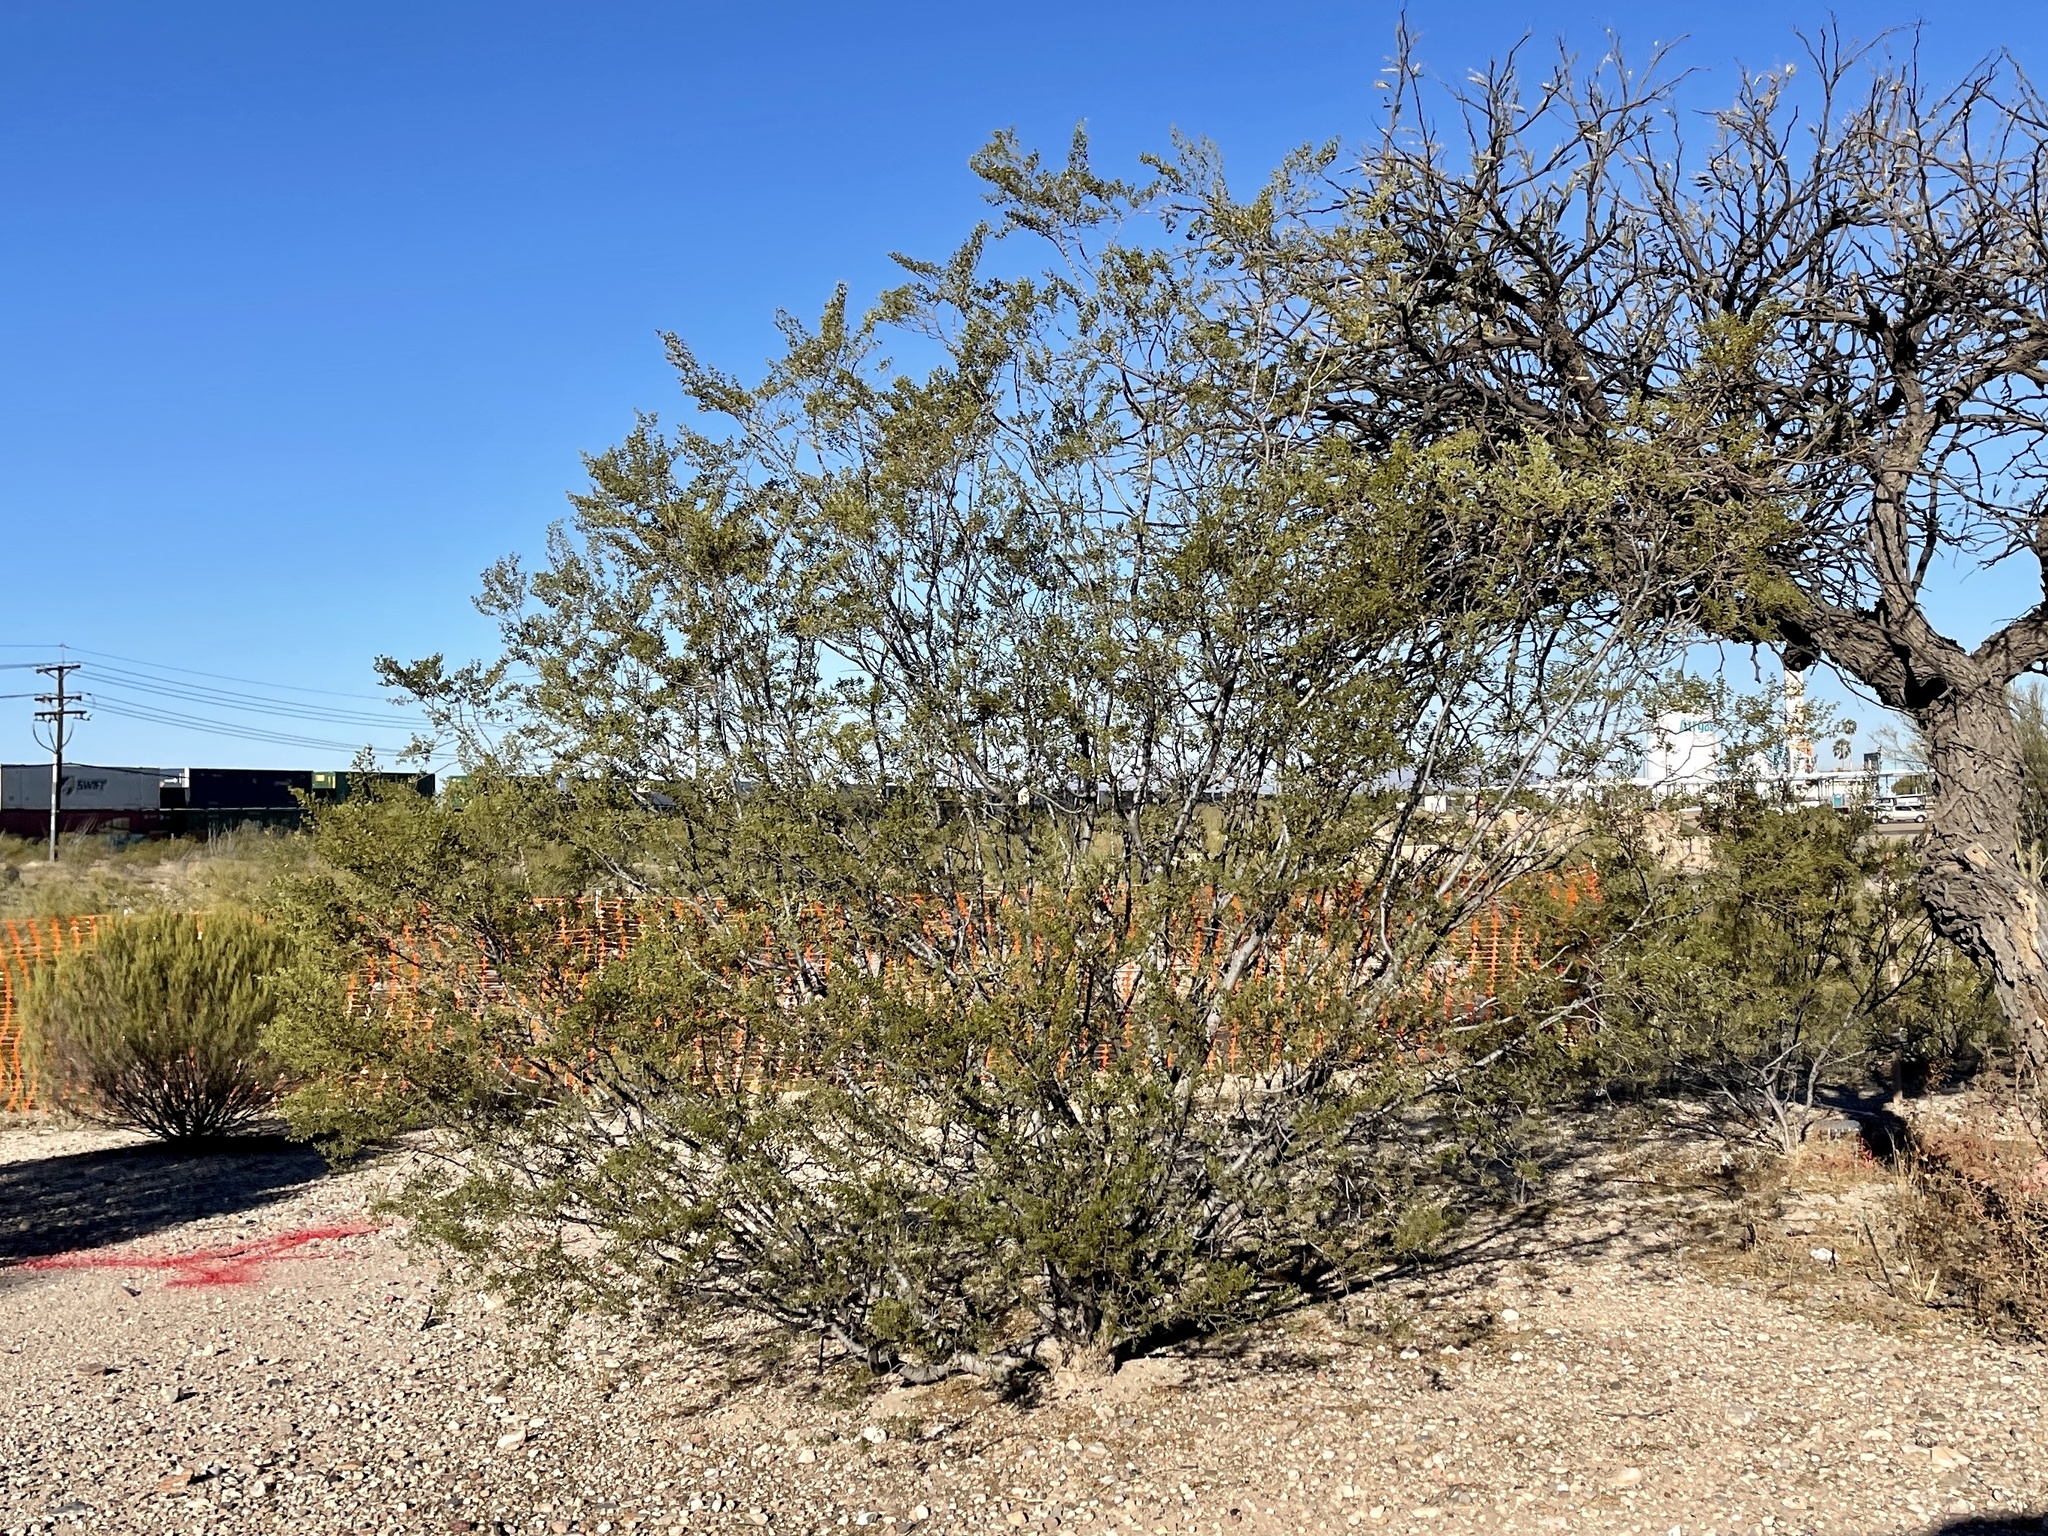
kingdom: Plantae
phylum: Tracheophyta
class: Magnoliopsida
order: Zygophyllales
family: Zygophyllaceae
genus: Larrea
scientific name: Larrea tridentata
